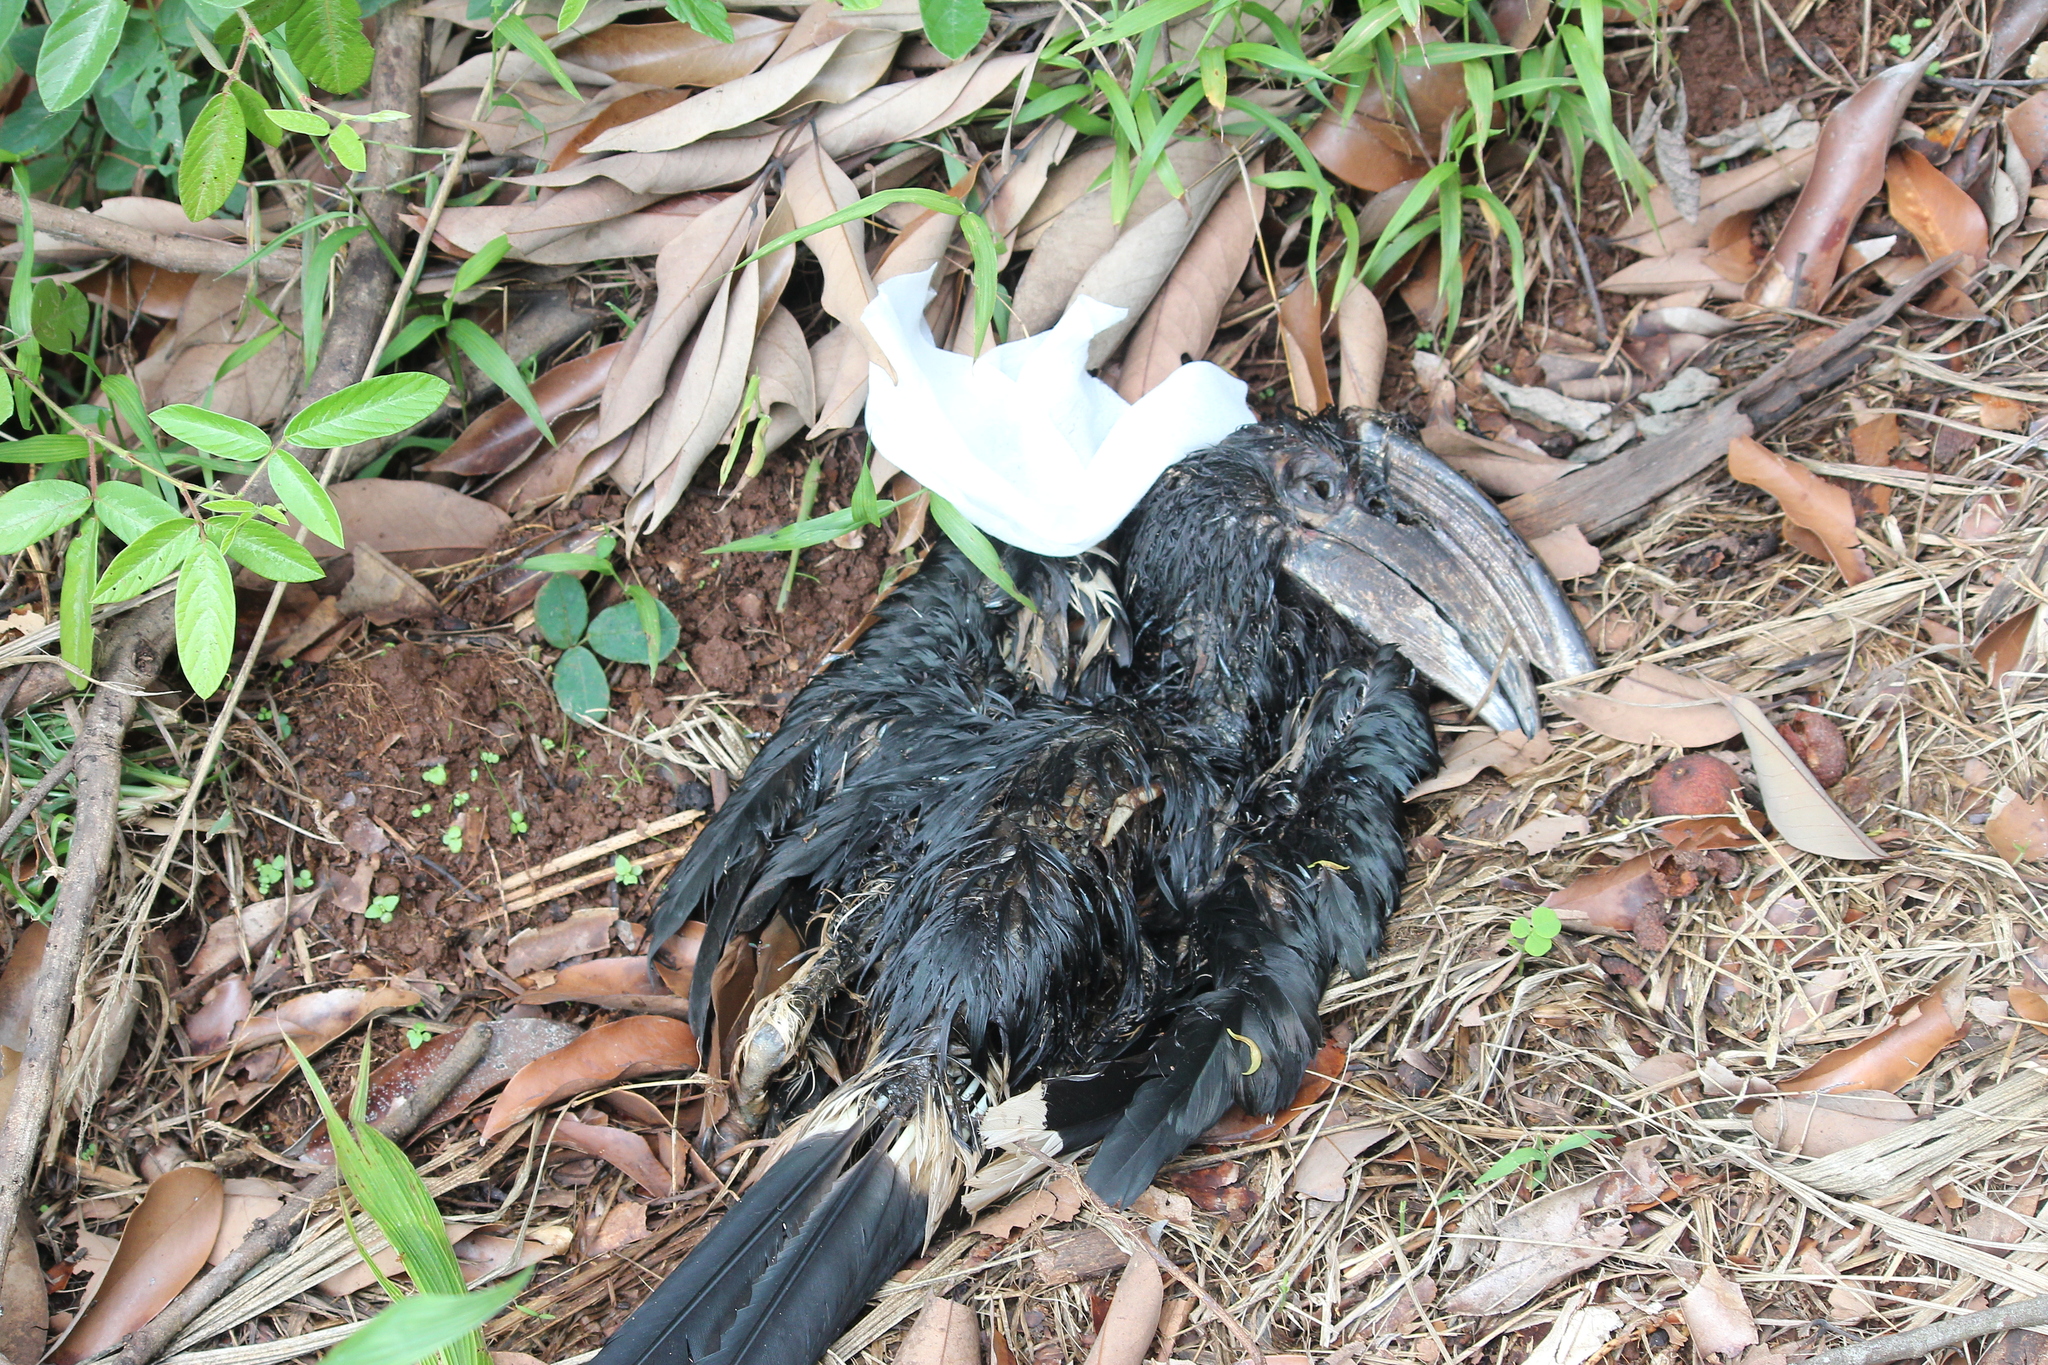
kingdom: Animalia
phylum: Chordata
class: Aves
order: Bucerotiformes
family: Bucerotidae
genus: Bycanistes
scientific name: Bycanistes bucinator
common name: Trumpeter hornbill
